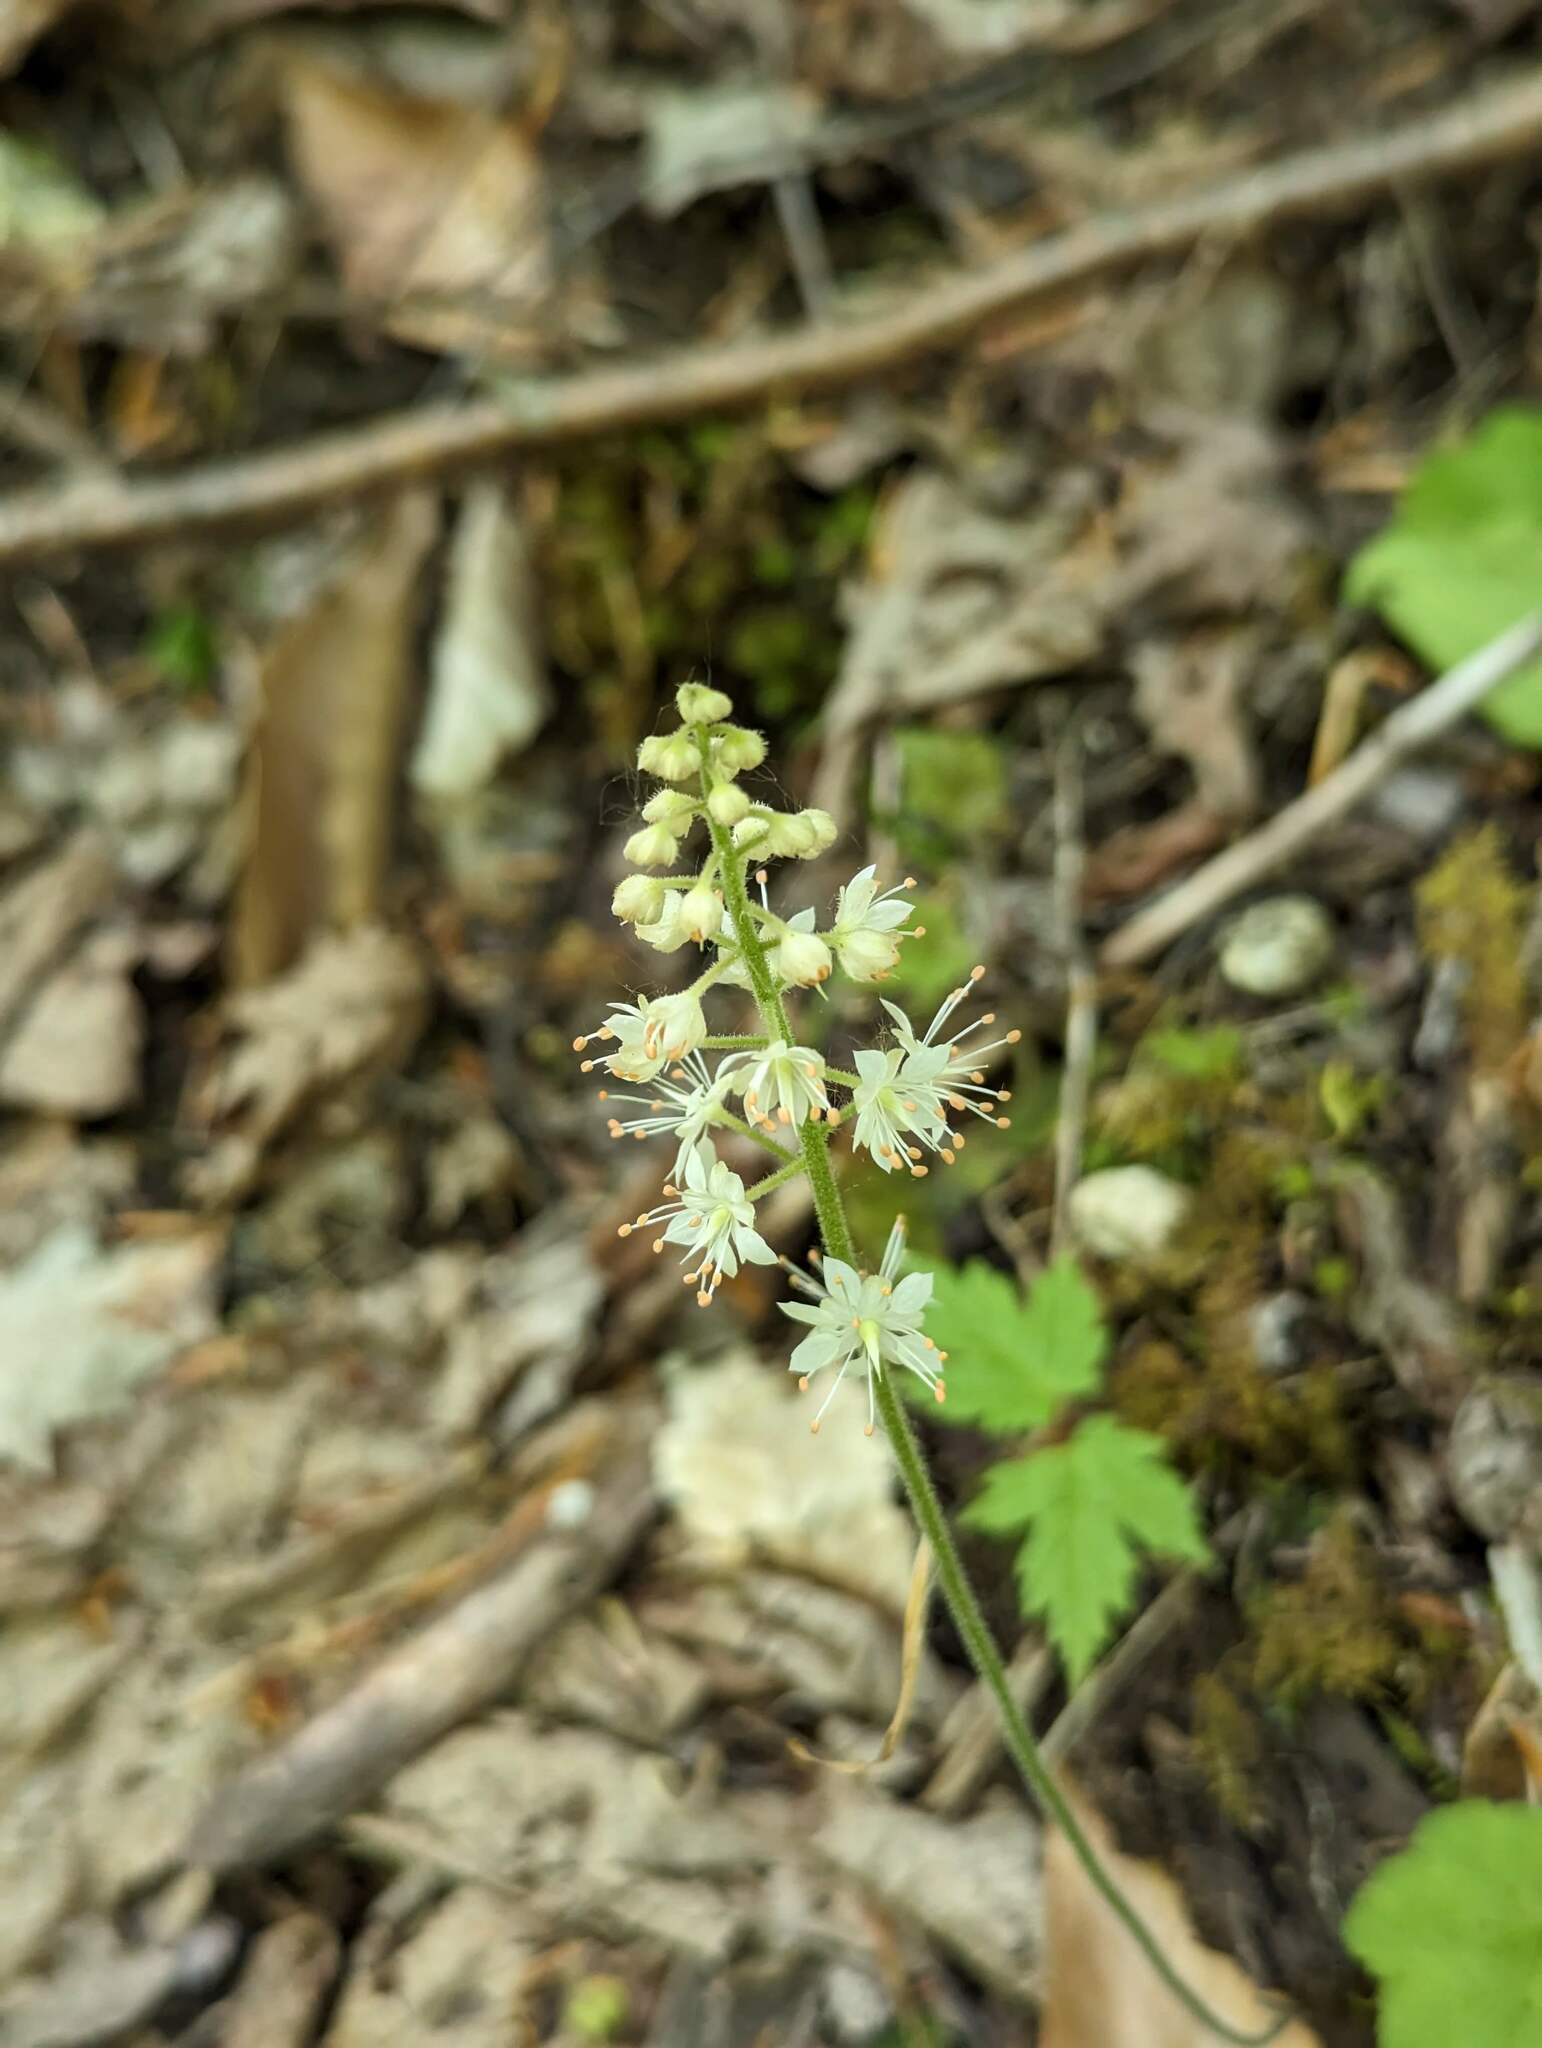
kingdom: Plantae
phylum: Tracheophyta
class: Magnoliopsida
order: Saxifragales
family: Saxifragaceae
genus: Tiarella
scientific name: Tiarella stolonifera
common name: Stoloniferous foamflower
